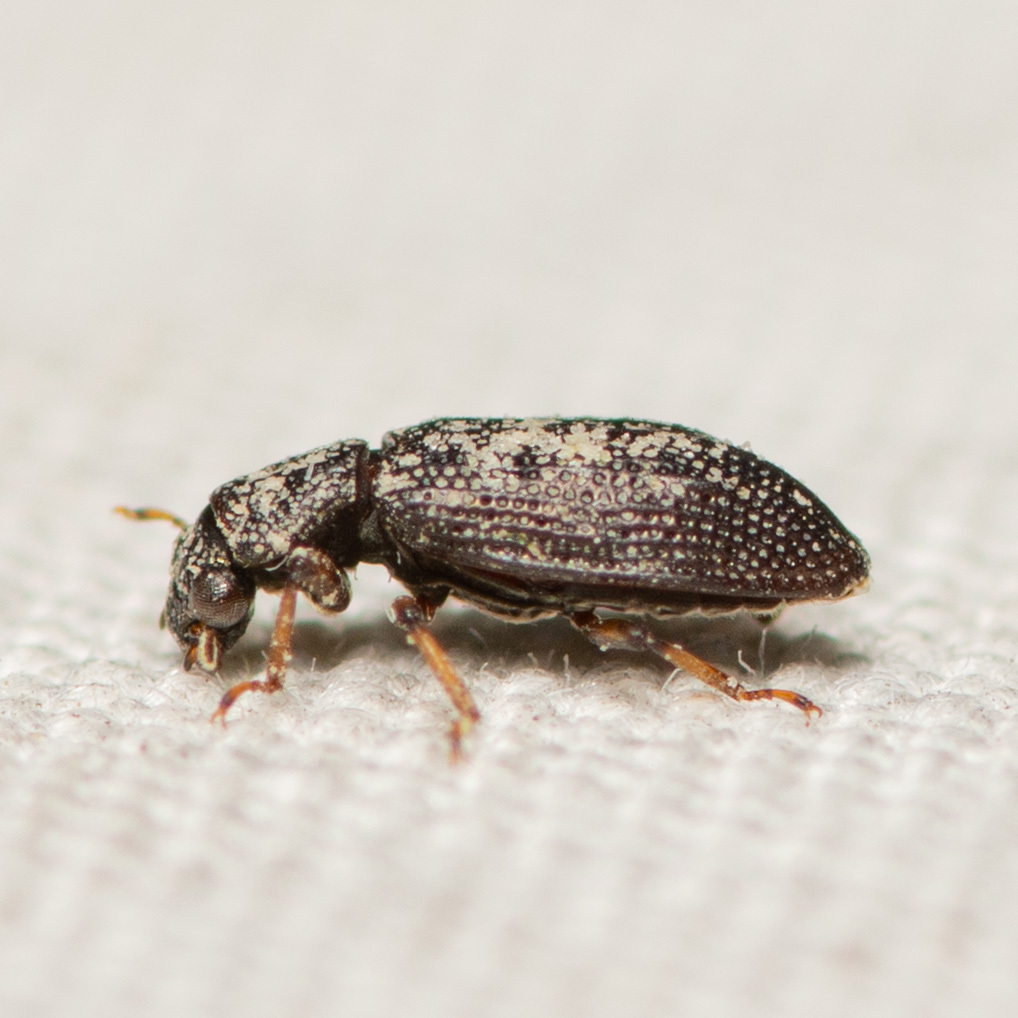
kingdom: Animalia
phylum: Arthropoda
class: Insecta
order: Coleoptera
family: Hydrochidae
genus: Hydrochus
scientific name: Hydrochus
